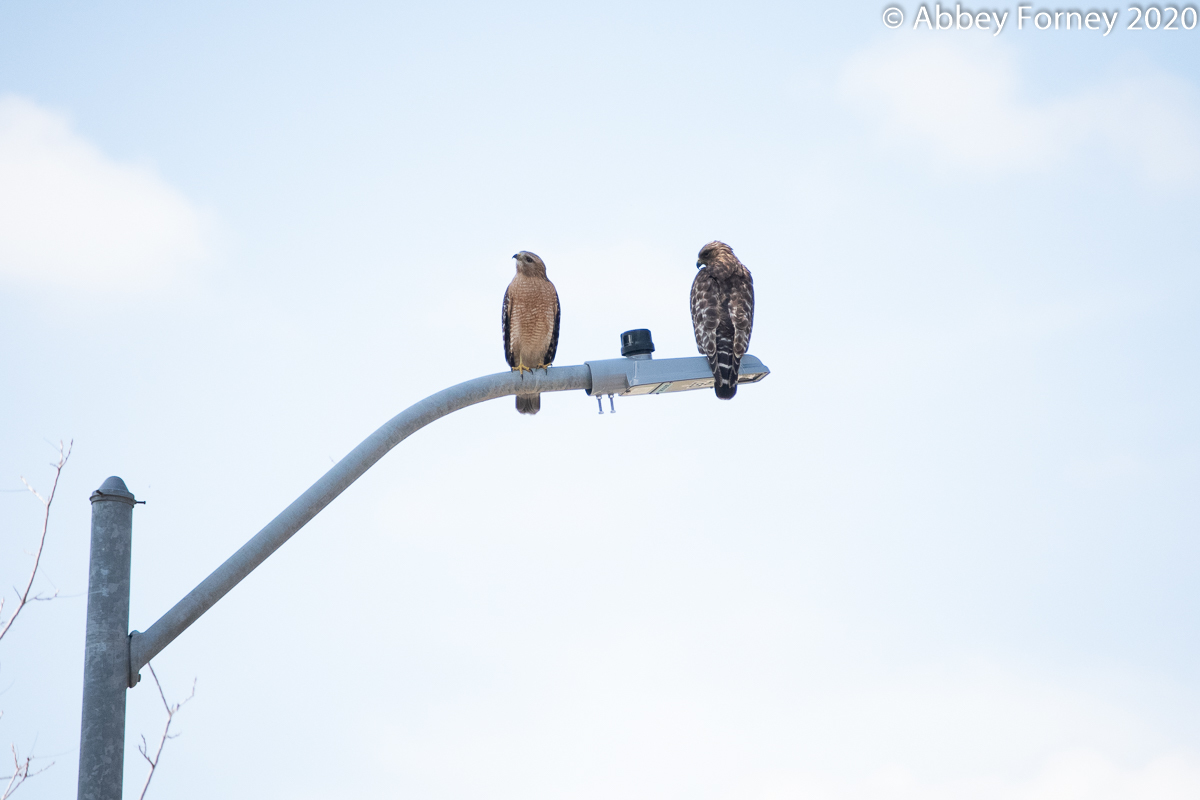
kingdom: Animalia
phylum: Chordata
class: Aves
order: Accipitriformes
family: Accipitridae
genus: Buteo
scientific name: Buteo lineatus
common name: Red-shouldered hawk
